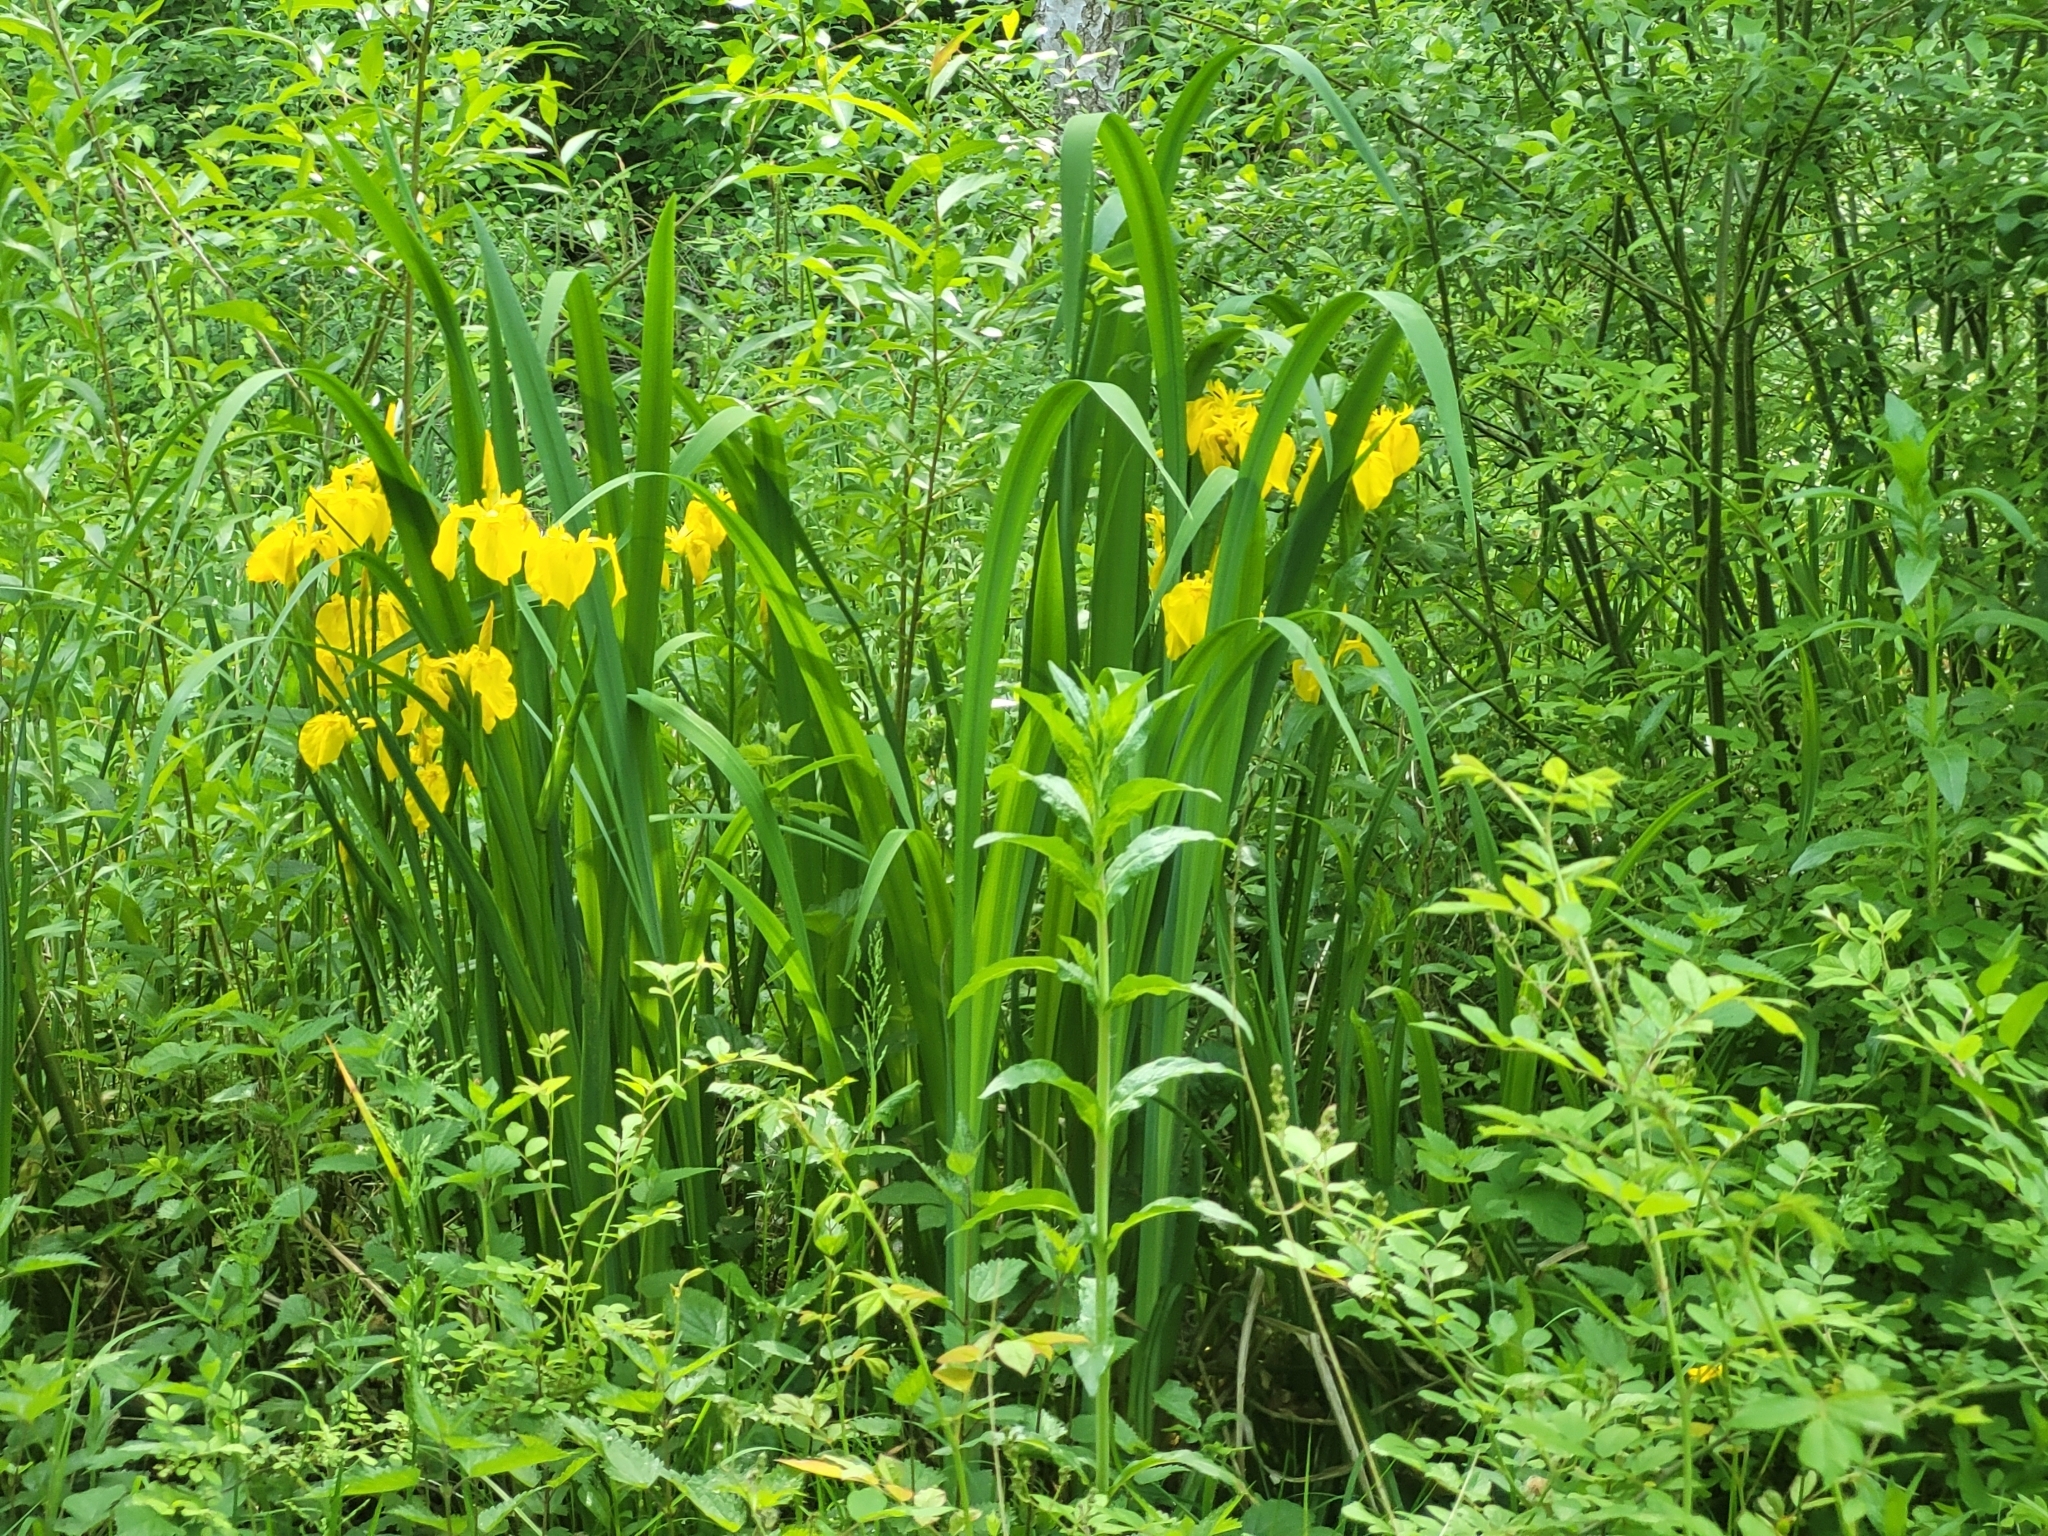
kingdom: Plantae
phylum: Tracheophyta
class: Liliopsida
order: Asparagales
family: Iridaceae
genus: Iris
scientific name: Iris pseudacorus
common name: Yellow flag
